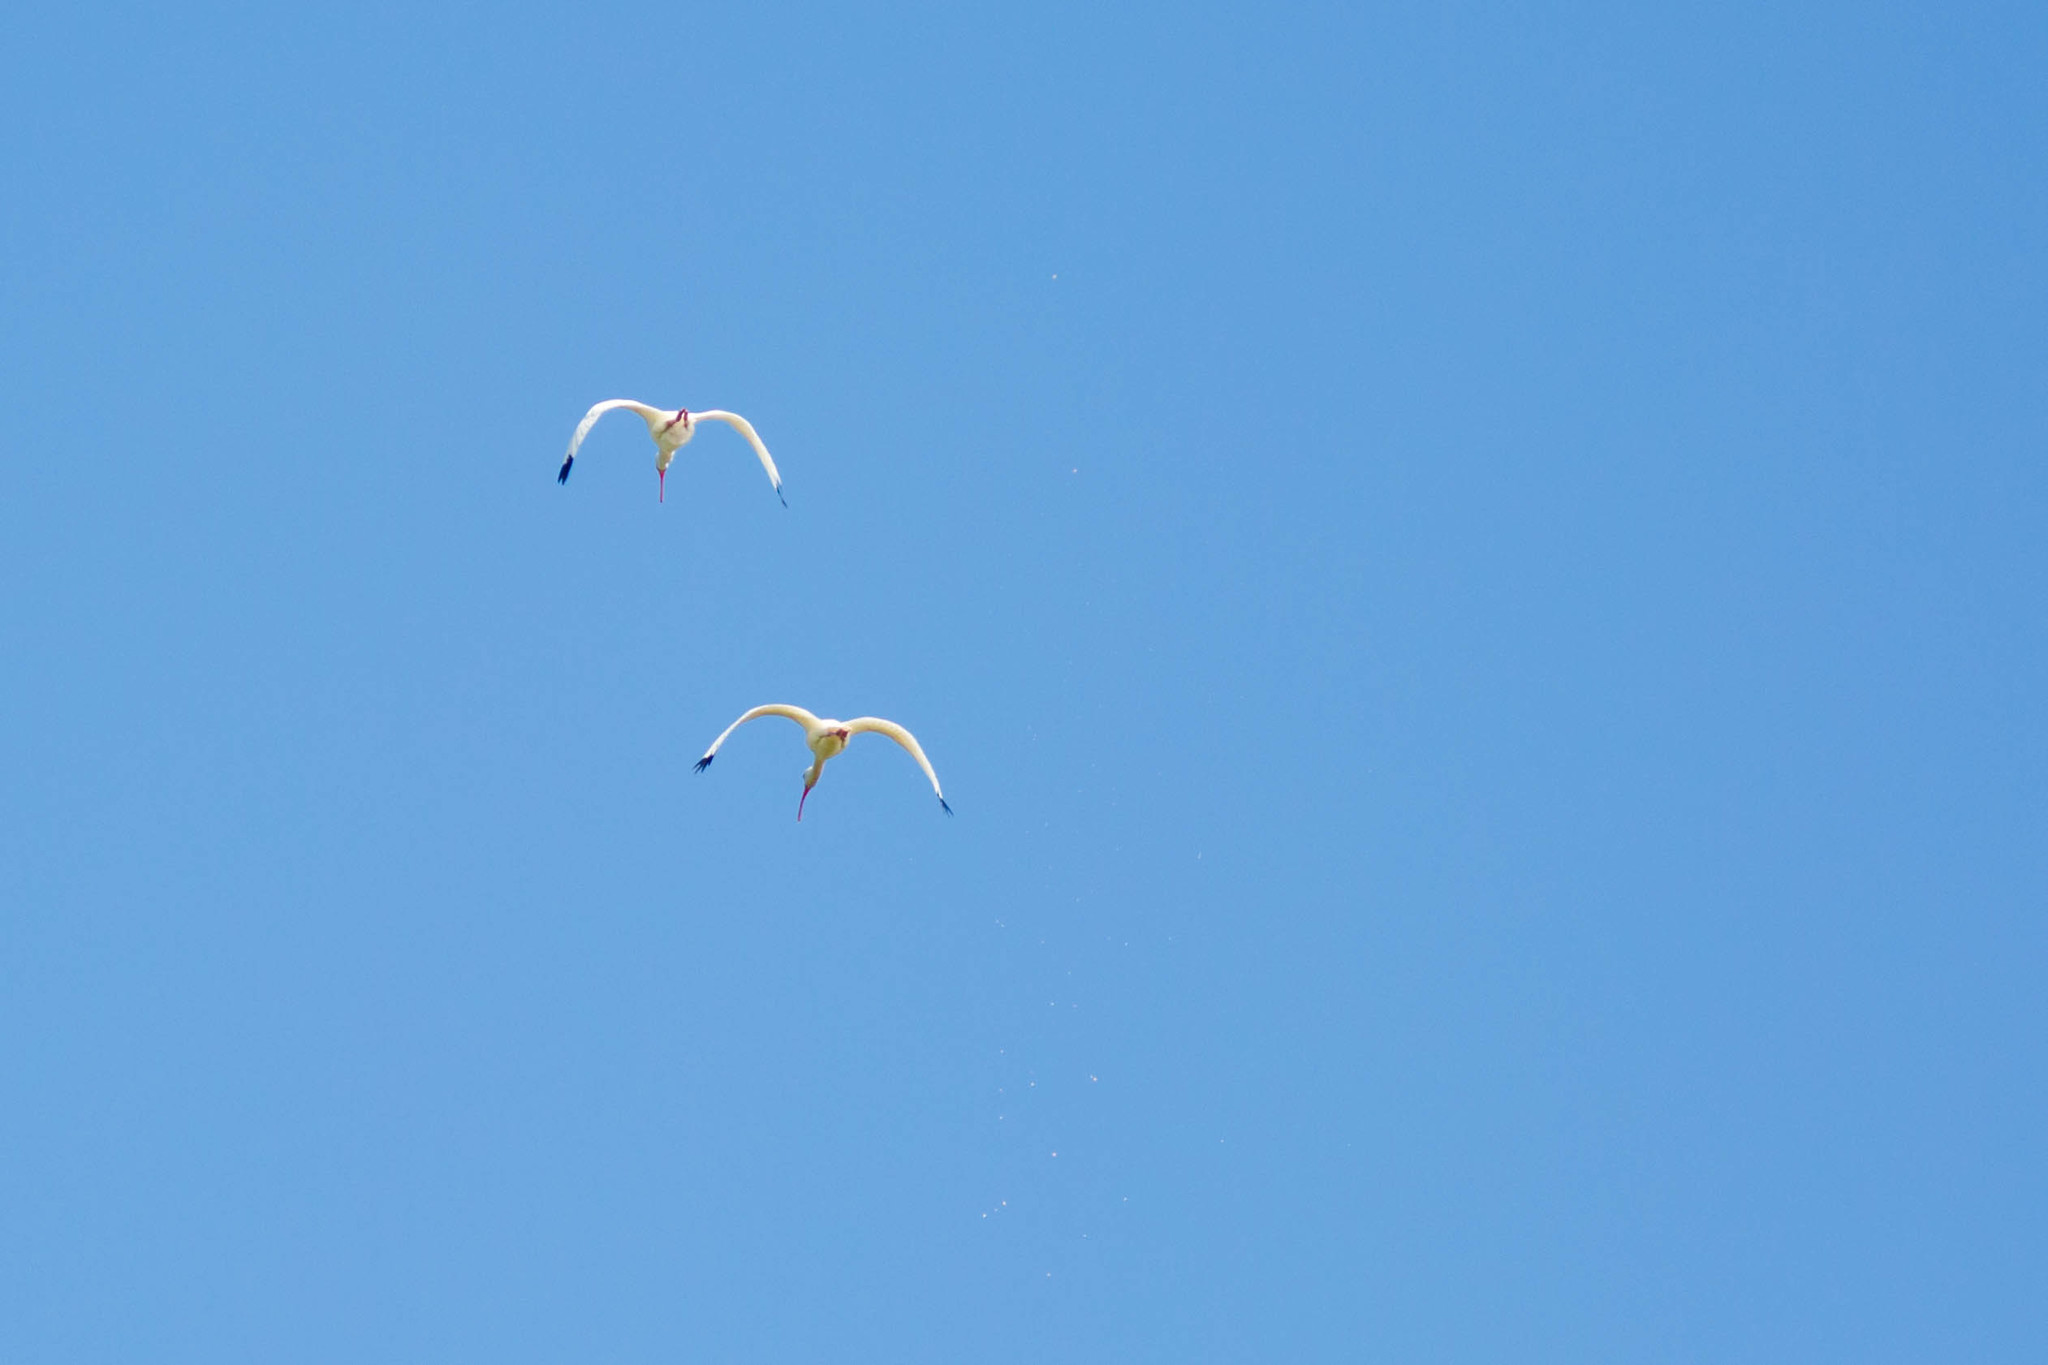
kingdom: Animalia
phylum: Chordata
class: Aves
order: Pelecaniformes
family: Threskiornithidae
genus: Eudocimus
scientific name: Eudocimus albus
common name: White ibis
